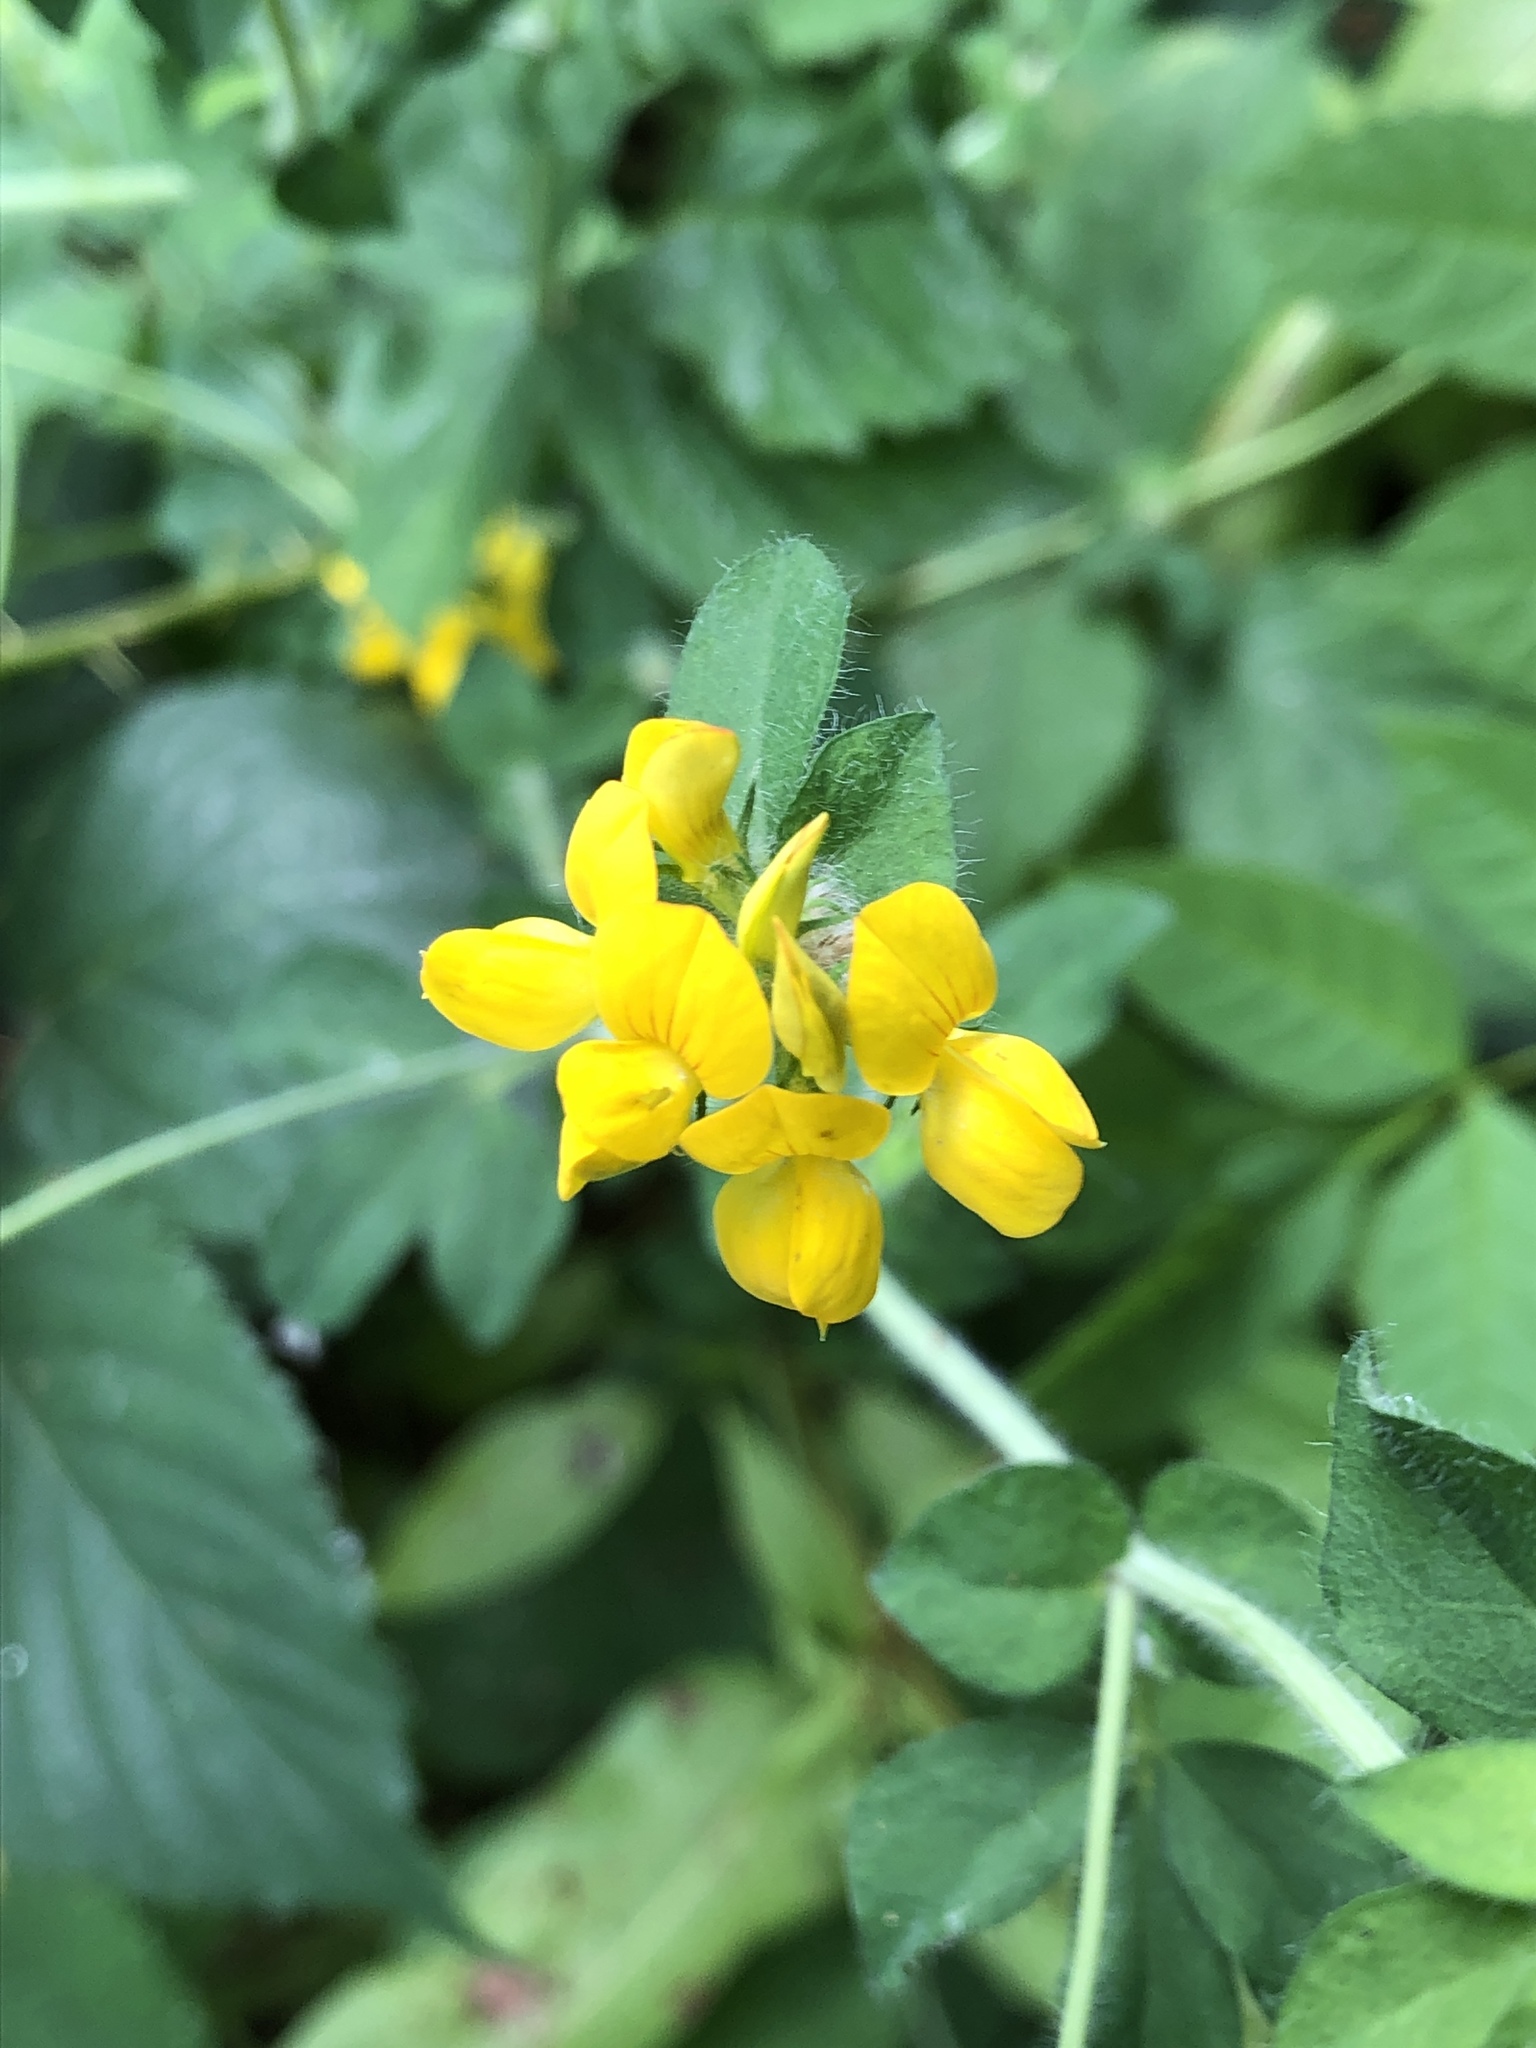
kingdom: Plantae
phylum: Tracheophyta
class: Magnoliopsida
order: Fabales
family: Fabaceae
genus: Lotus
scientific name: Lotus corniculatus
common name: Common bird's-foot-trefoil
